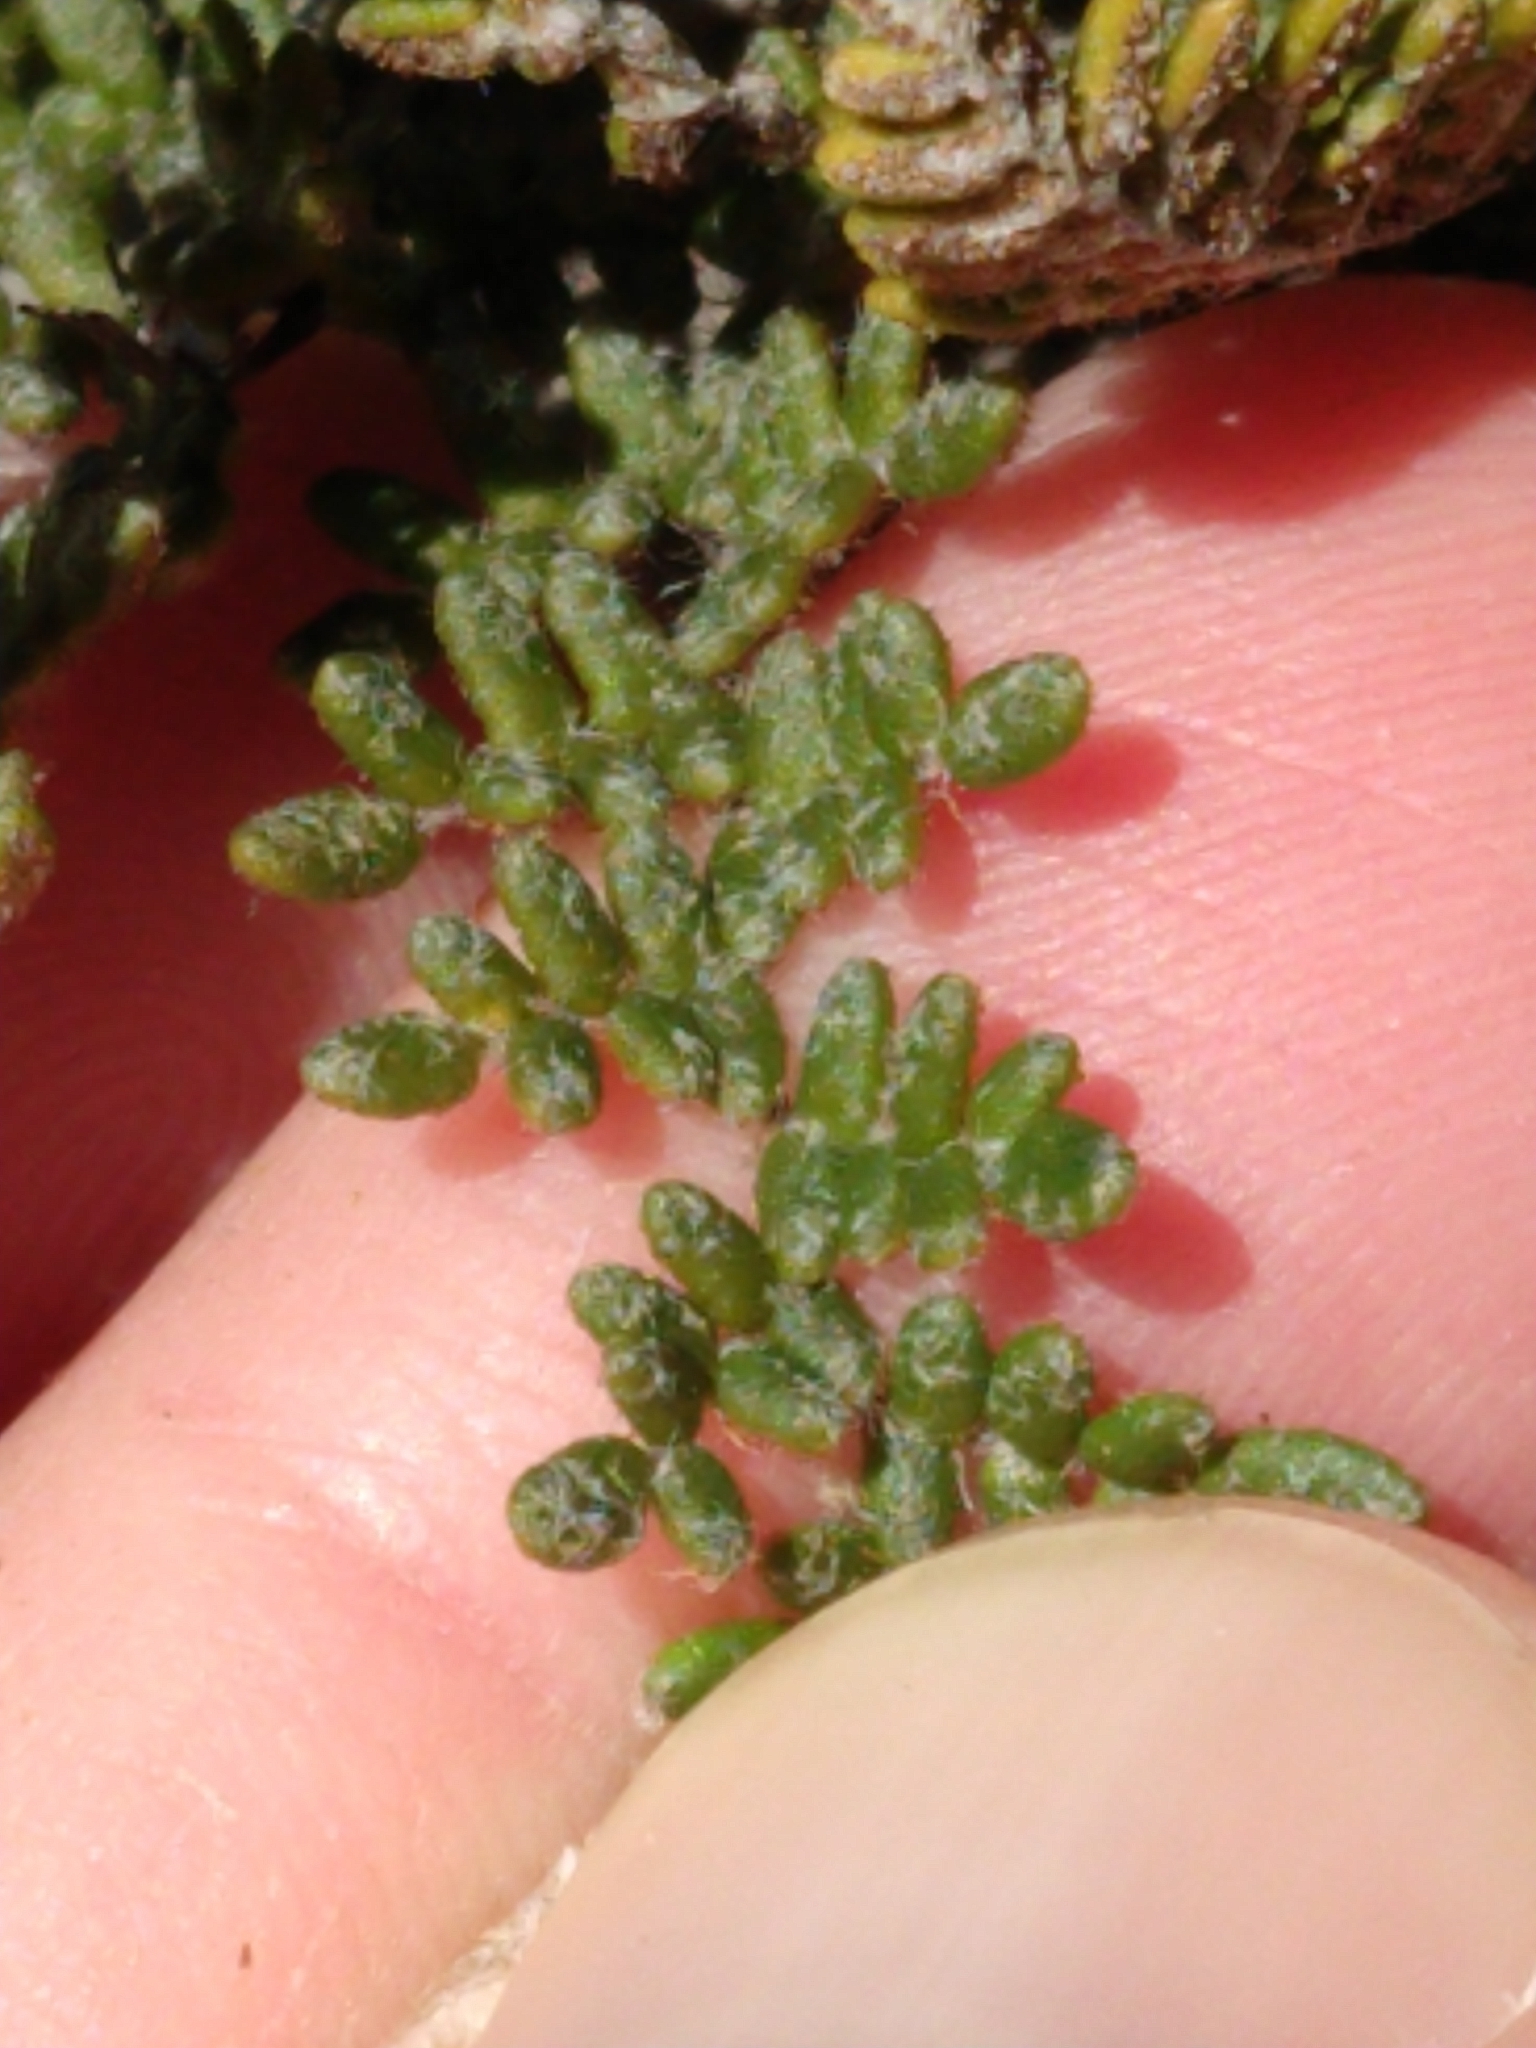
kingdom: Plantae
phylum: Tracheophyta
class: Polypodiopsida
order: Polypodiales
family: Pteridaceae
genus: Myriopteris
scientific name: Myriopteris gracillima
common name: Lace fern
